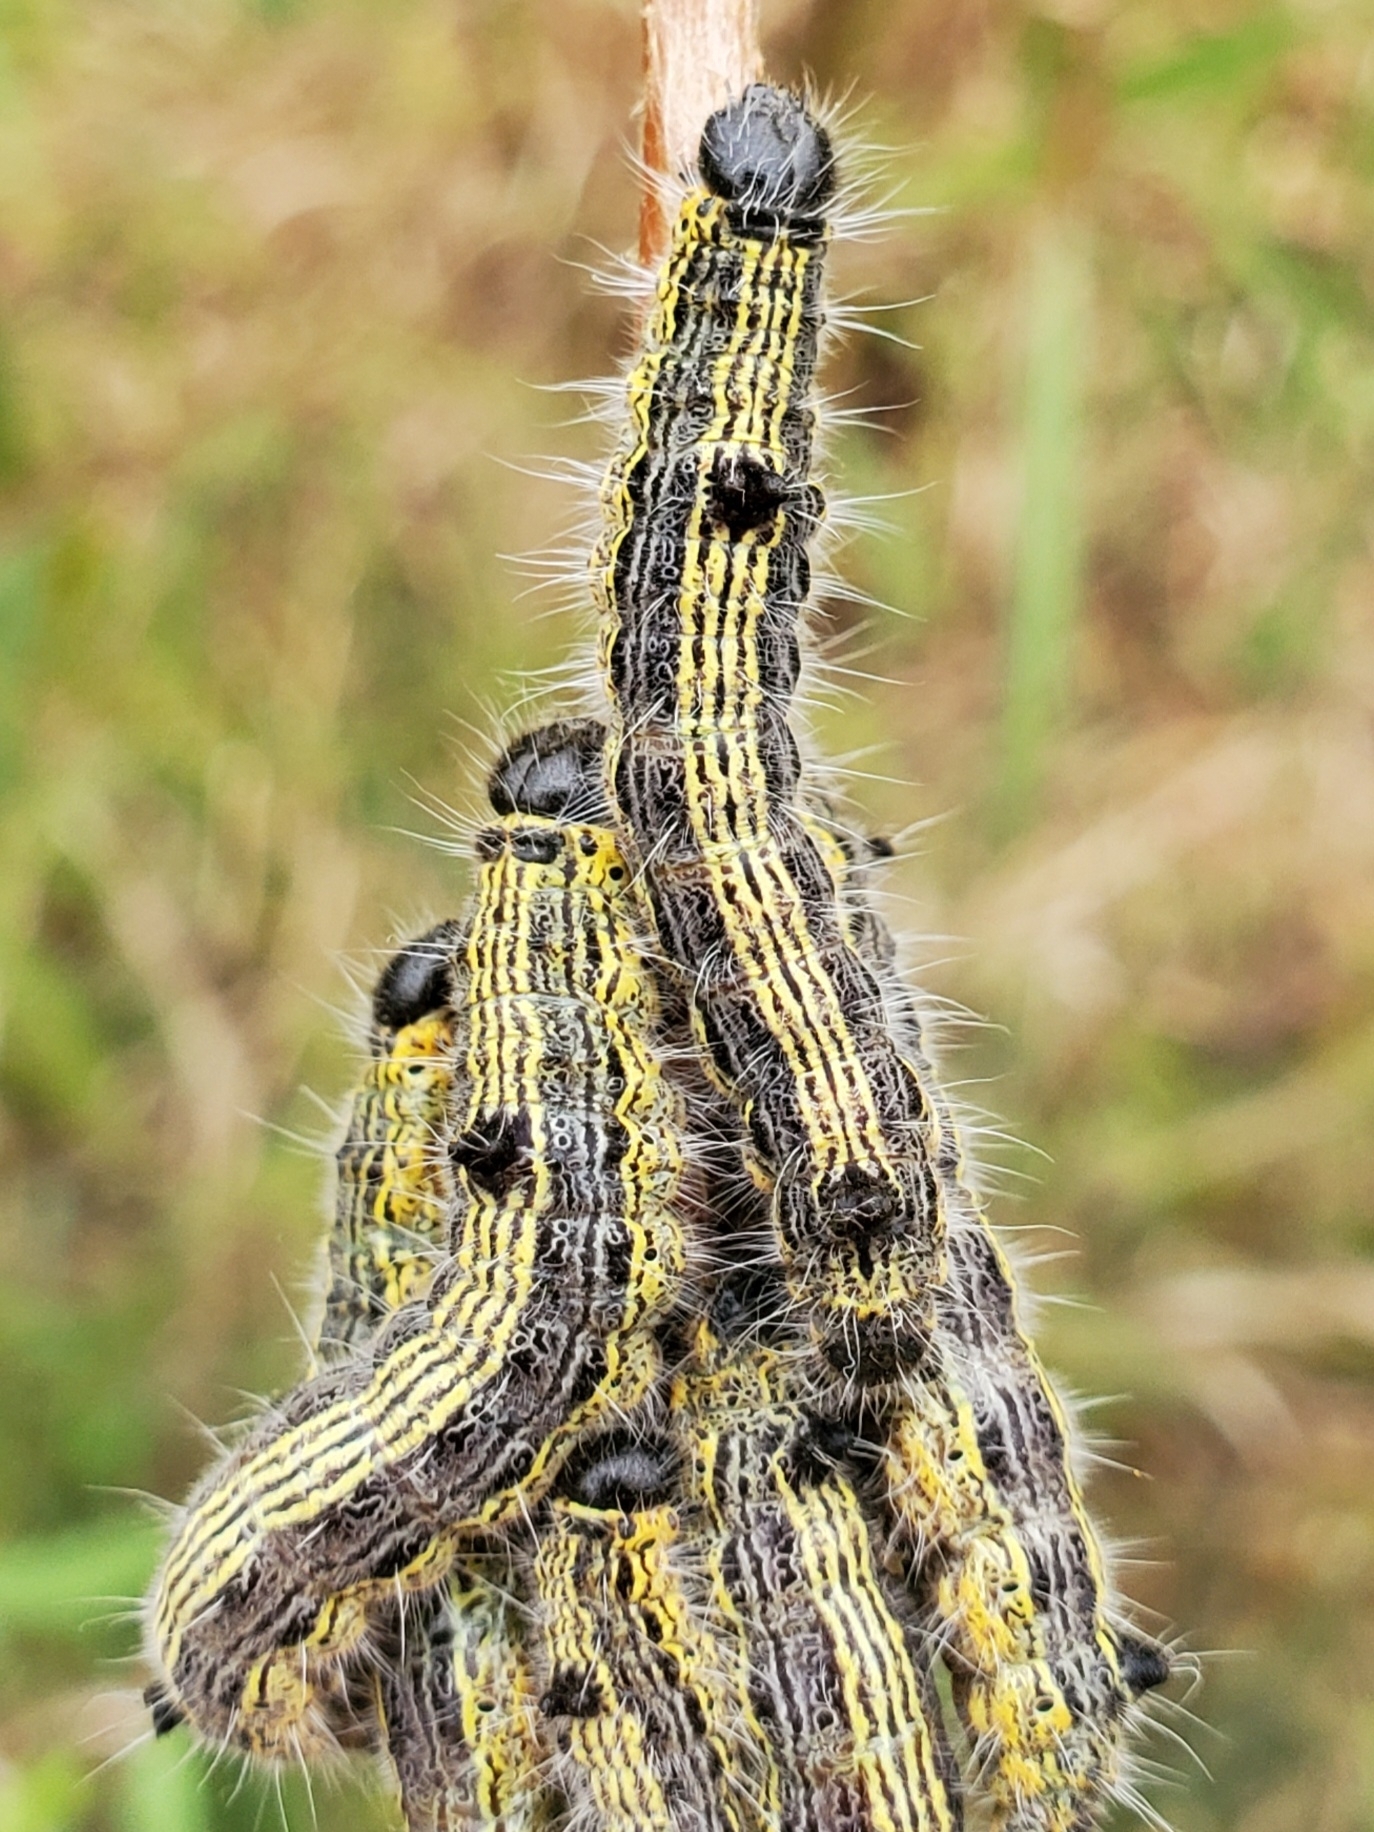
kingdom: Animalia
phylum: Arthropoda
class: Insecta
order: Lepidoptera
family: Notodontidae
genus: Clostera
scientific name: Clostera inclusa
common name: Angle-lined prominent
